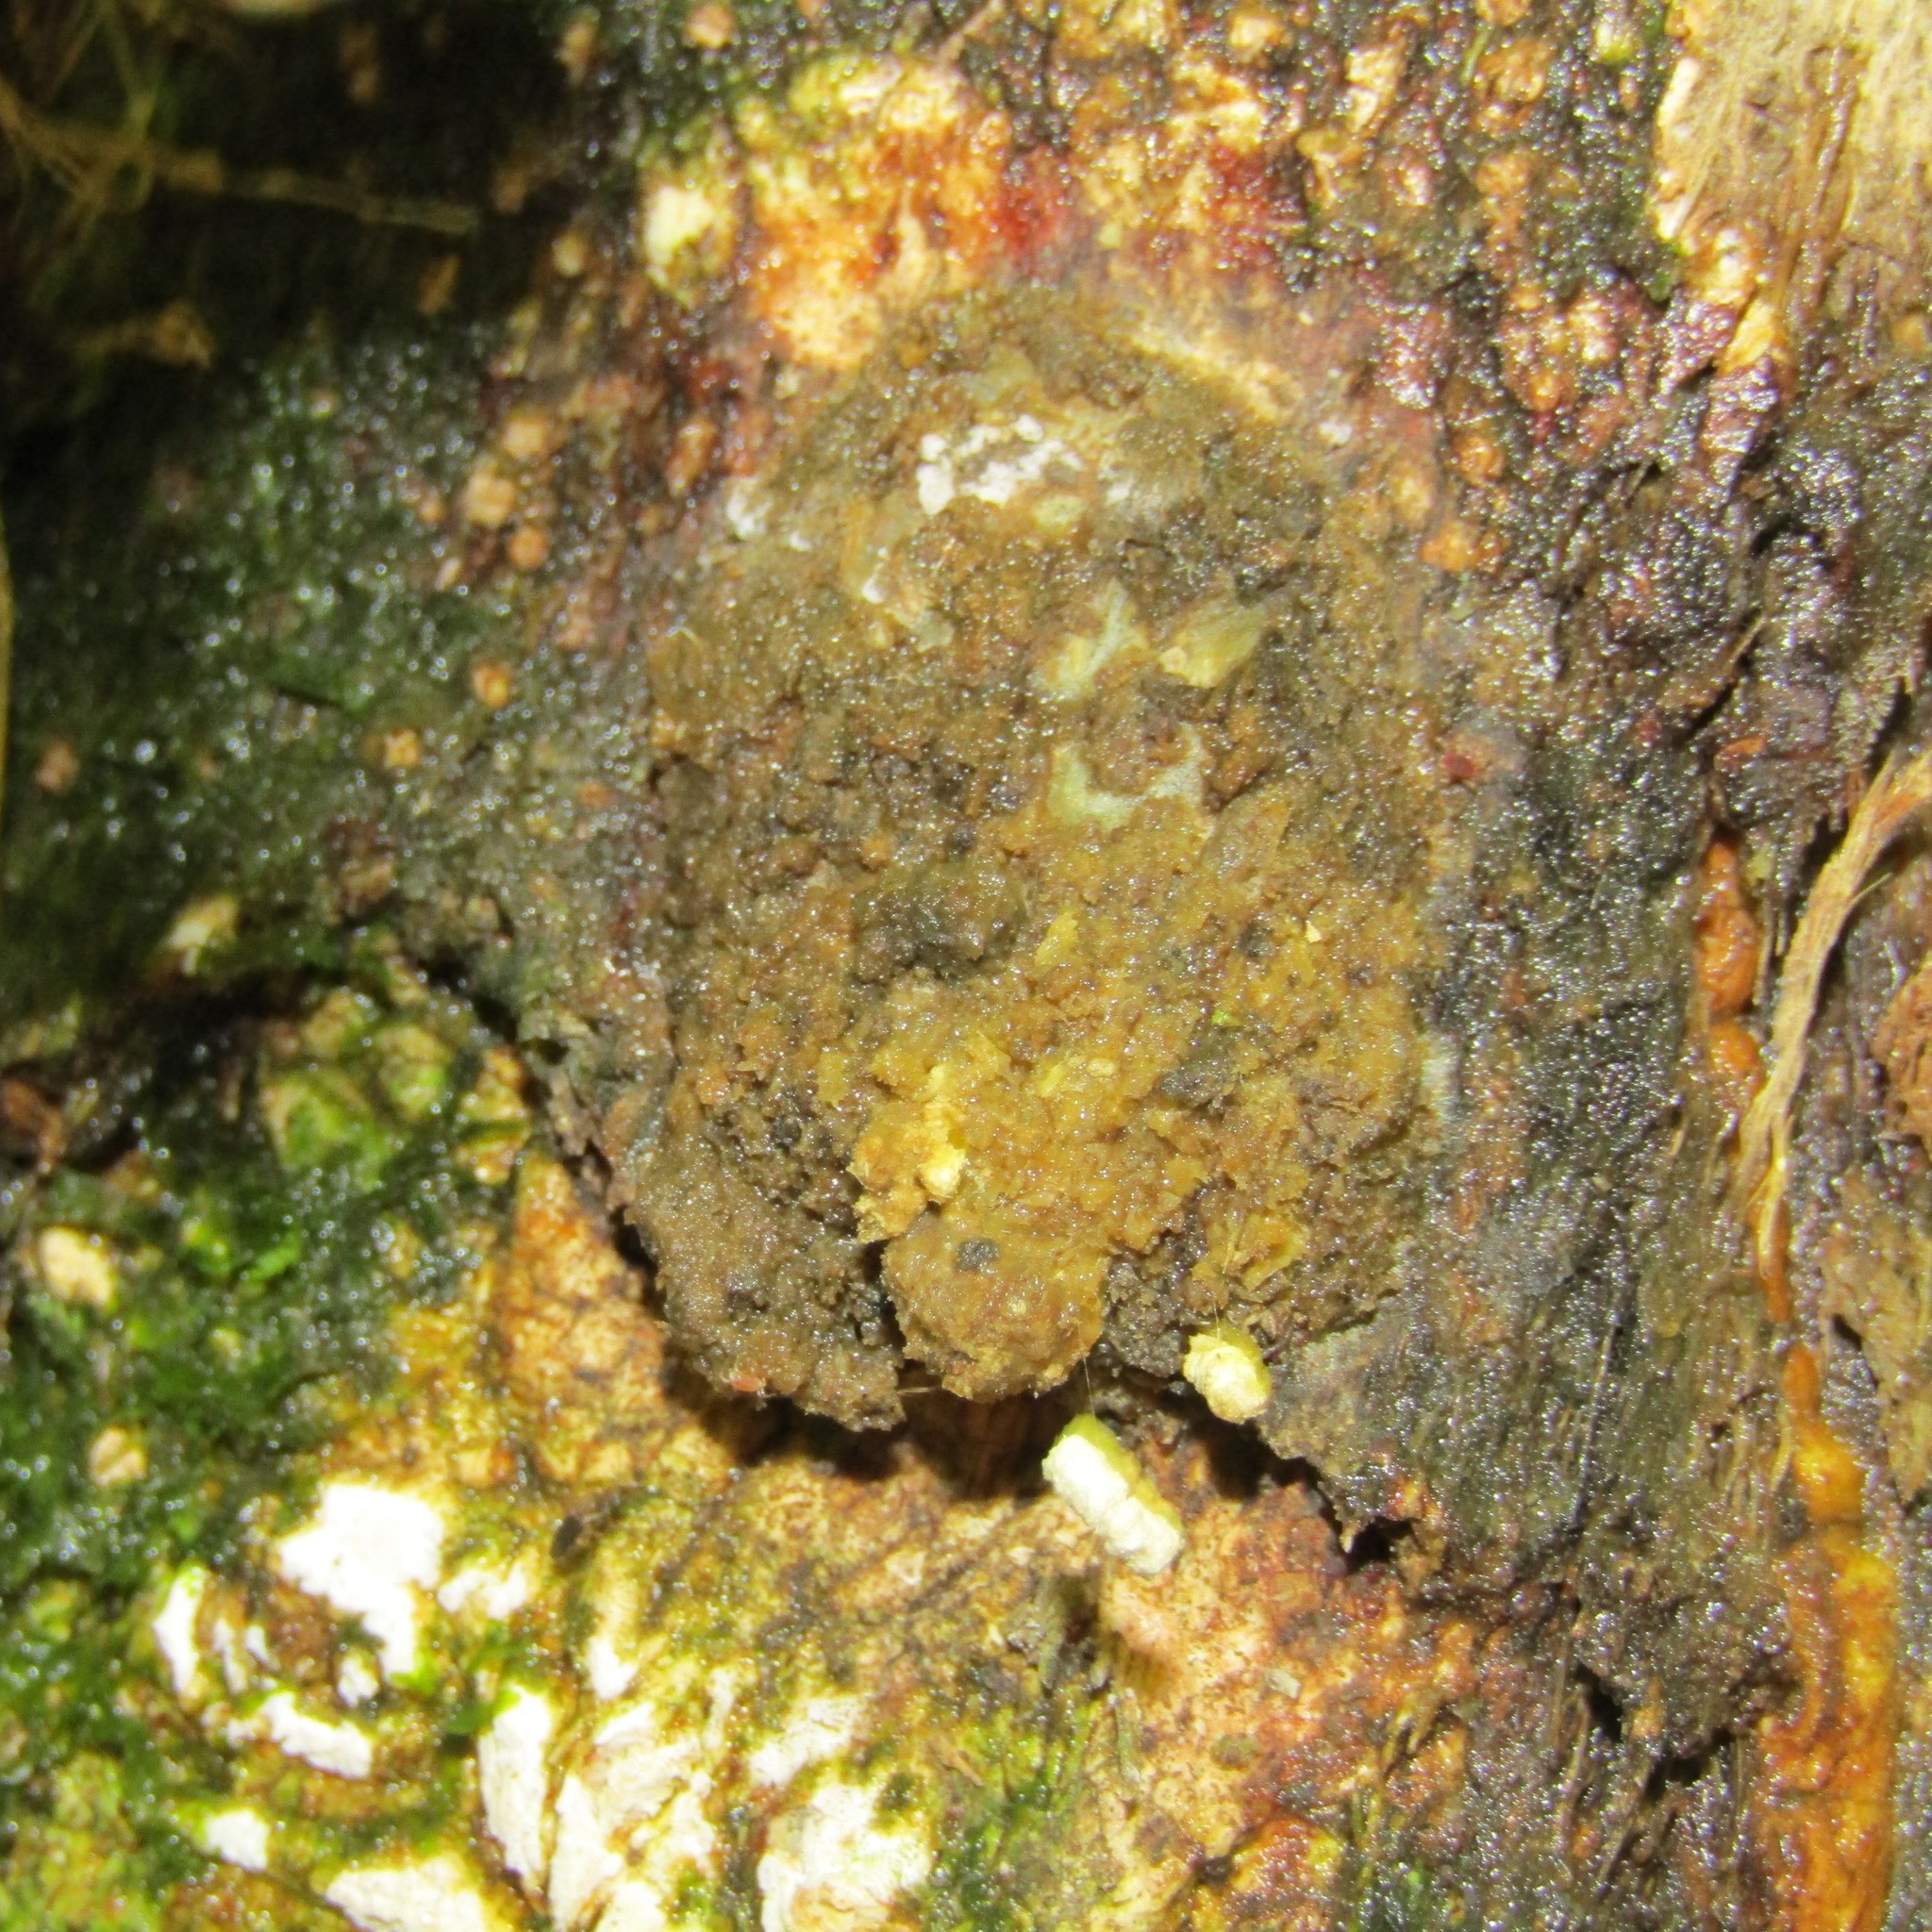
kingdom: Animalia
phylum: Arthropoda
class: Insecta
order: Lepidoptera
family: Hepialidae
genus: Aenetus
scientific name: Aenetus virescens
